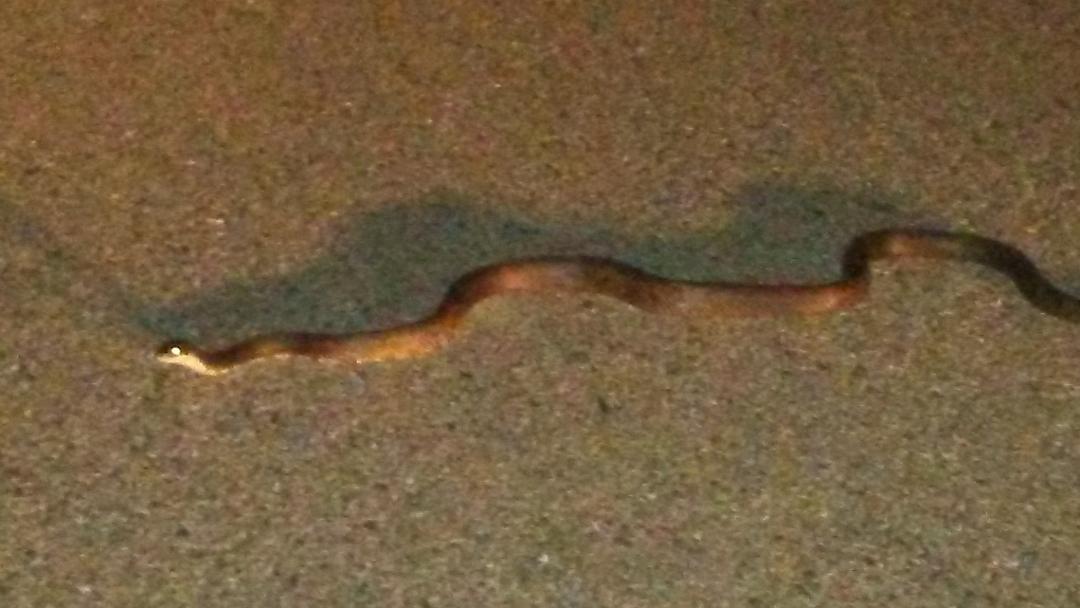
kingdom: Animalia
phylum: Chordata
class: Squamata
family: Colubridae
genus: Pantherophis
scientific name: Pantherophis spiloides
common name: Gray rat snake
